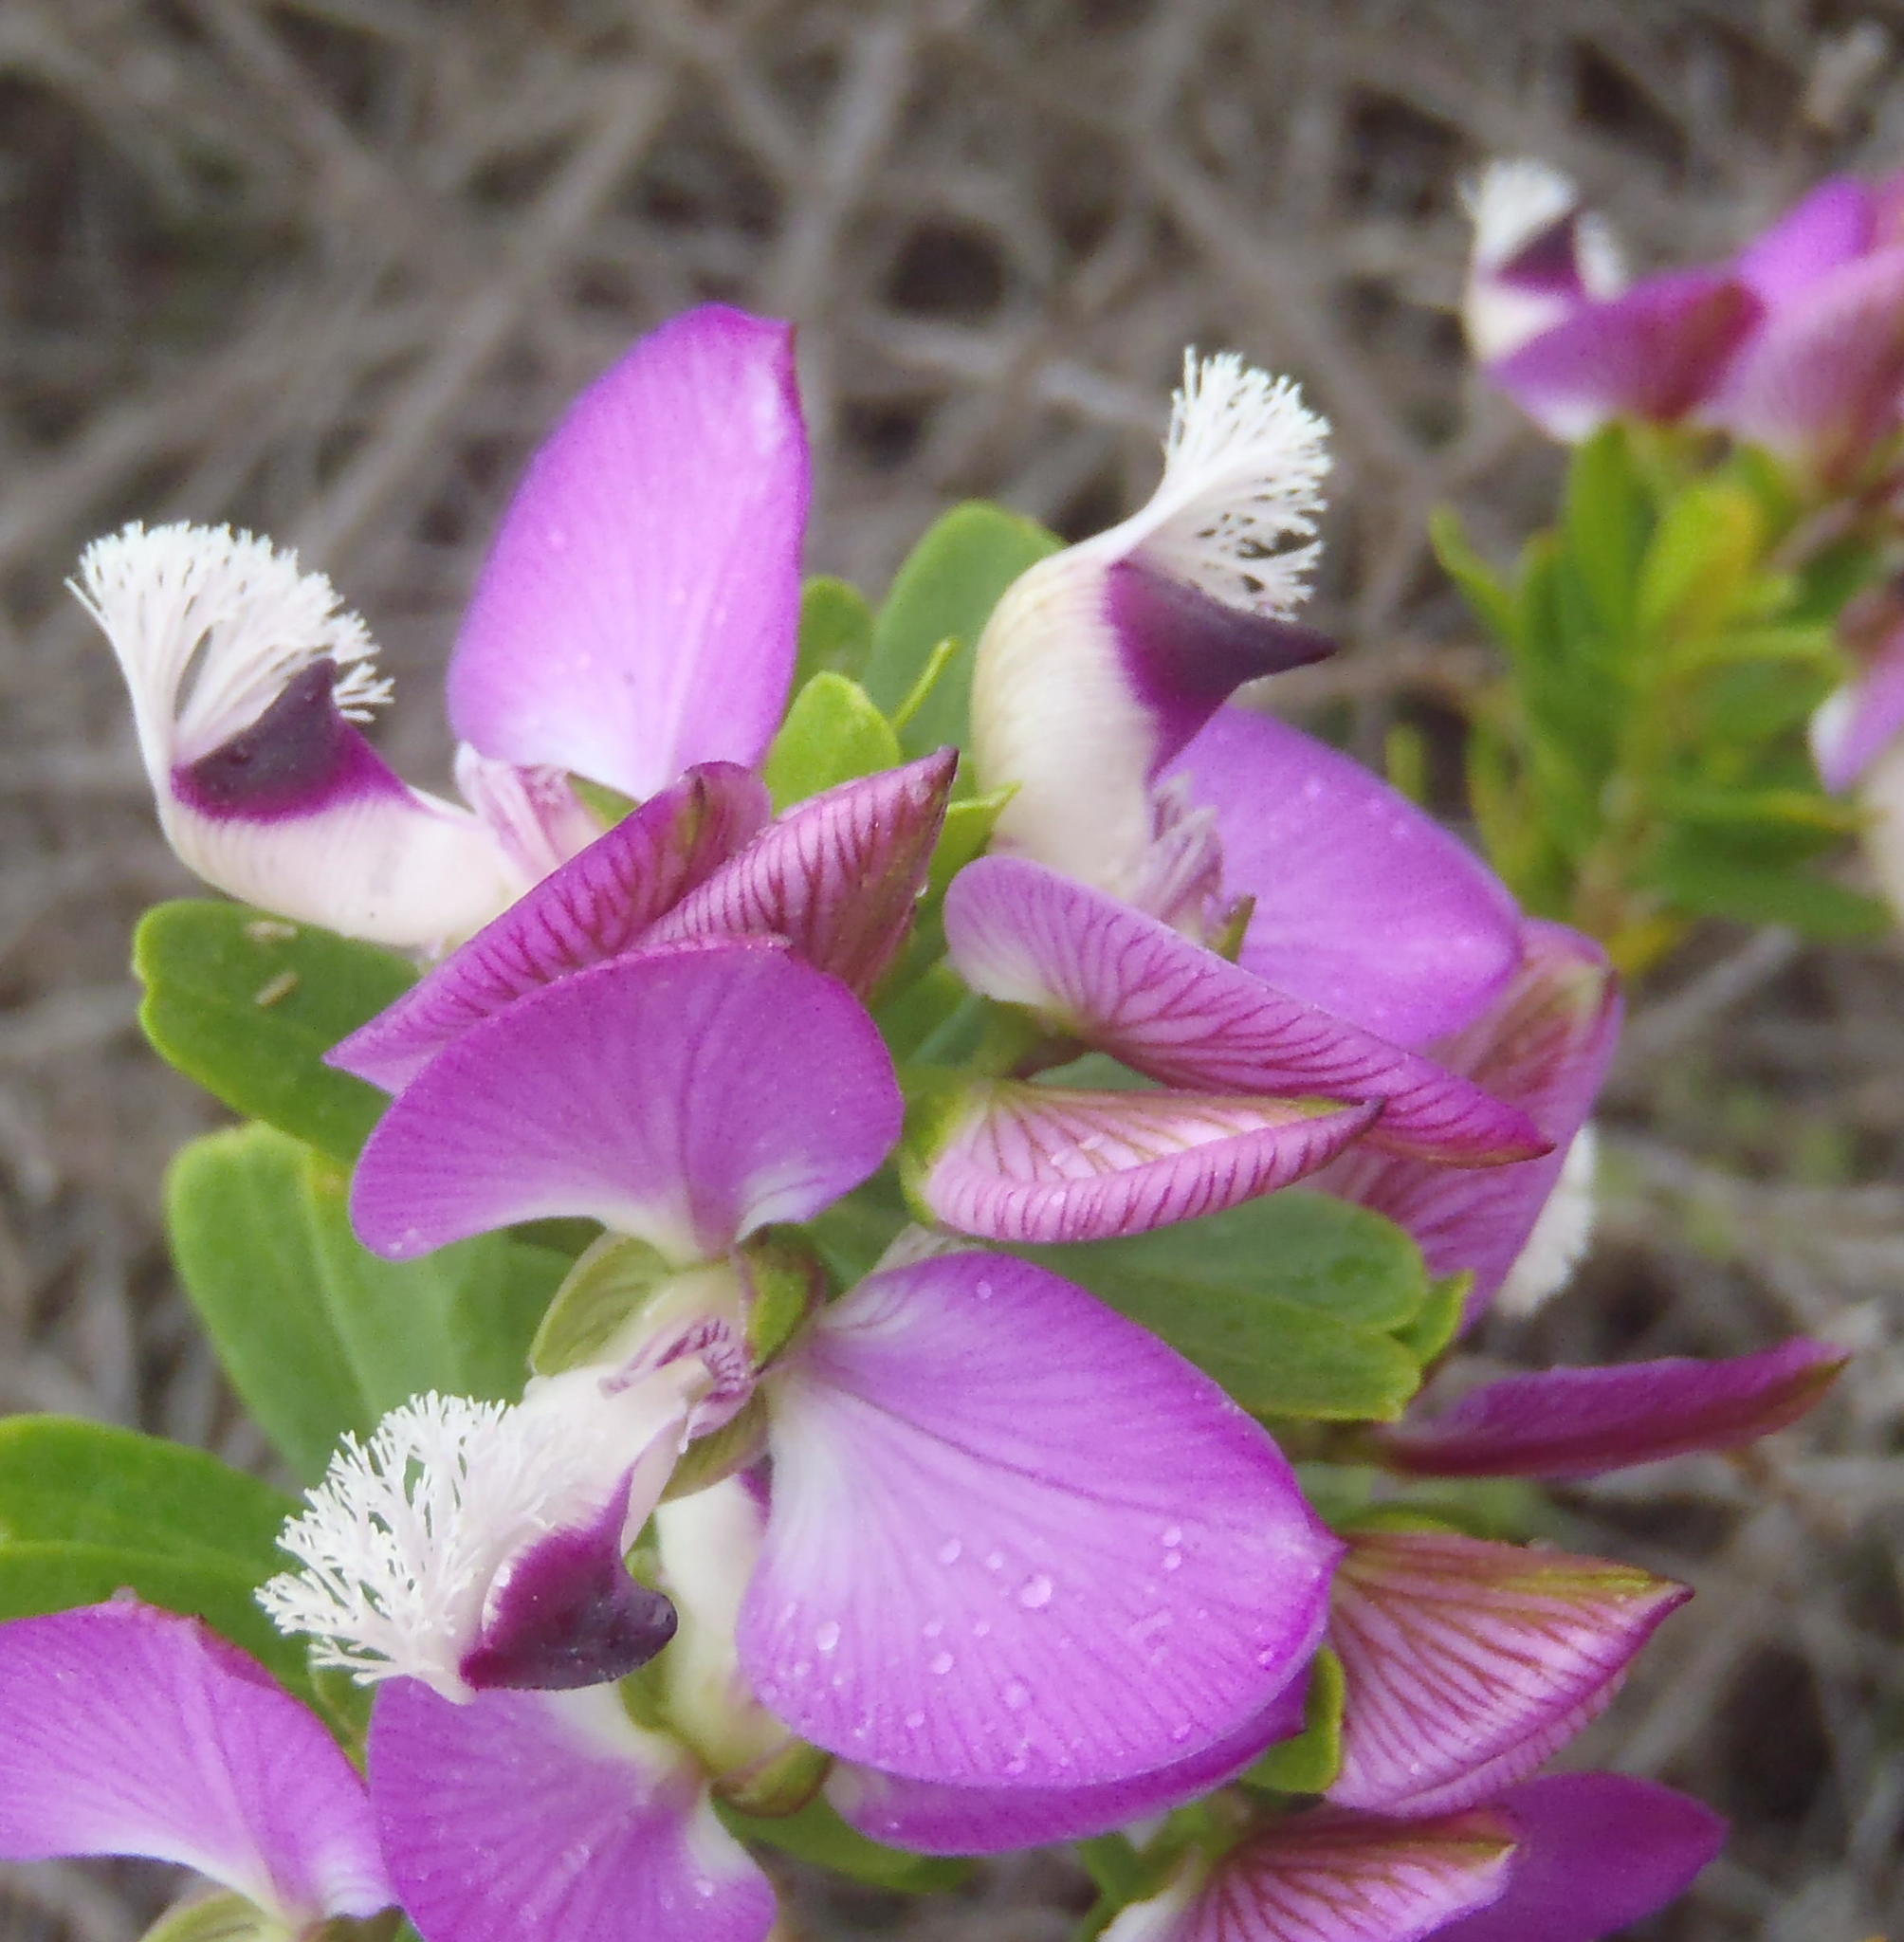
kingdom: Plantae
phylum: Tracheophyta
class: Magnoliopsida
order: Fabales
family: Polygalaceae
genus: Polygala
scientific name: Polygala myrtifolia
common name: Myrtle-leaf milkwort
